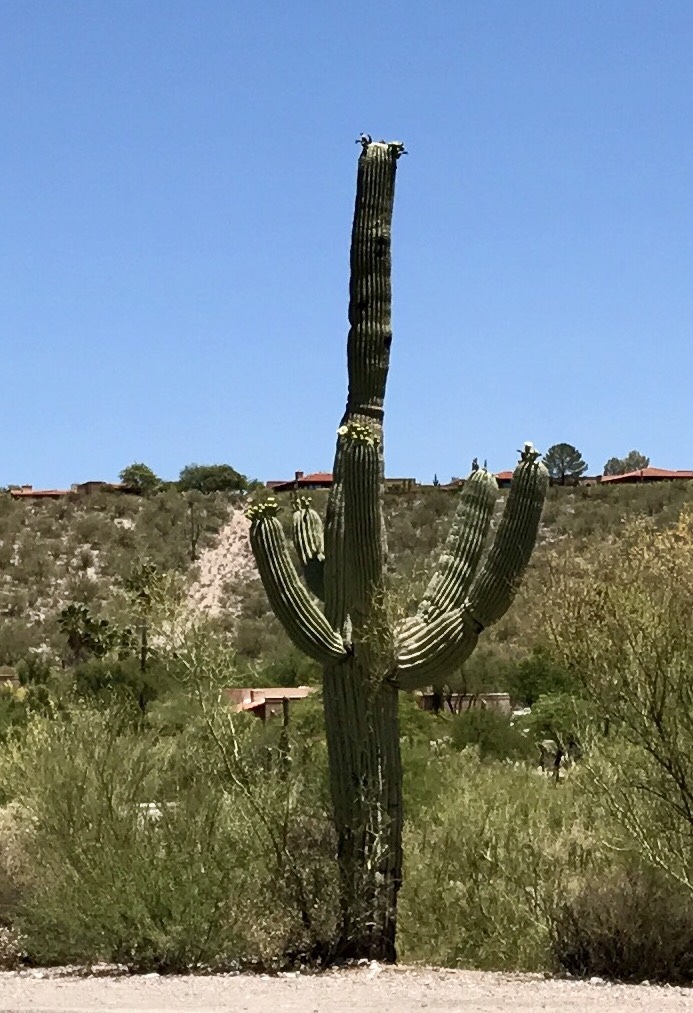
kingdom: Plantae
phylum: Tracheophyta
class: Magnoliopsida
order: Caryophyllales
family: Cactaceae
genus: Carnegiea
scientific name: Carnegiea gigantea
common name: Saguaro
